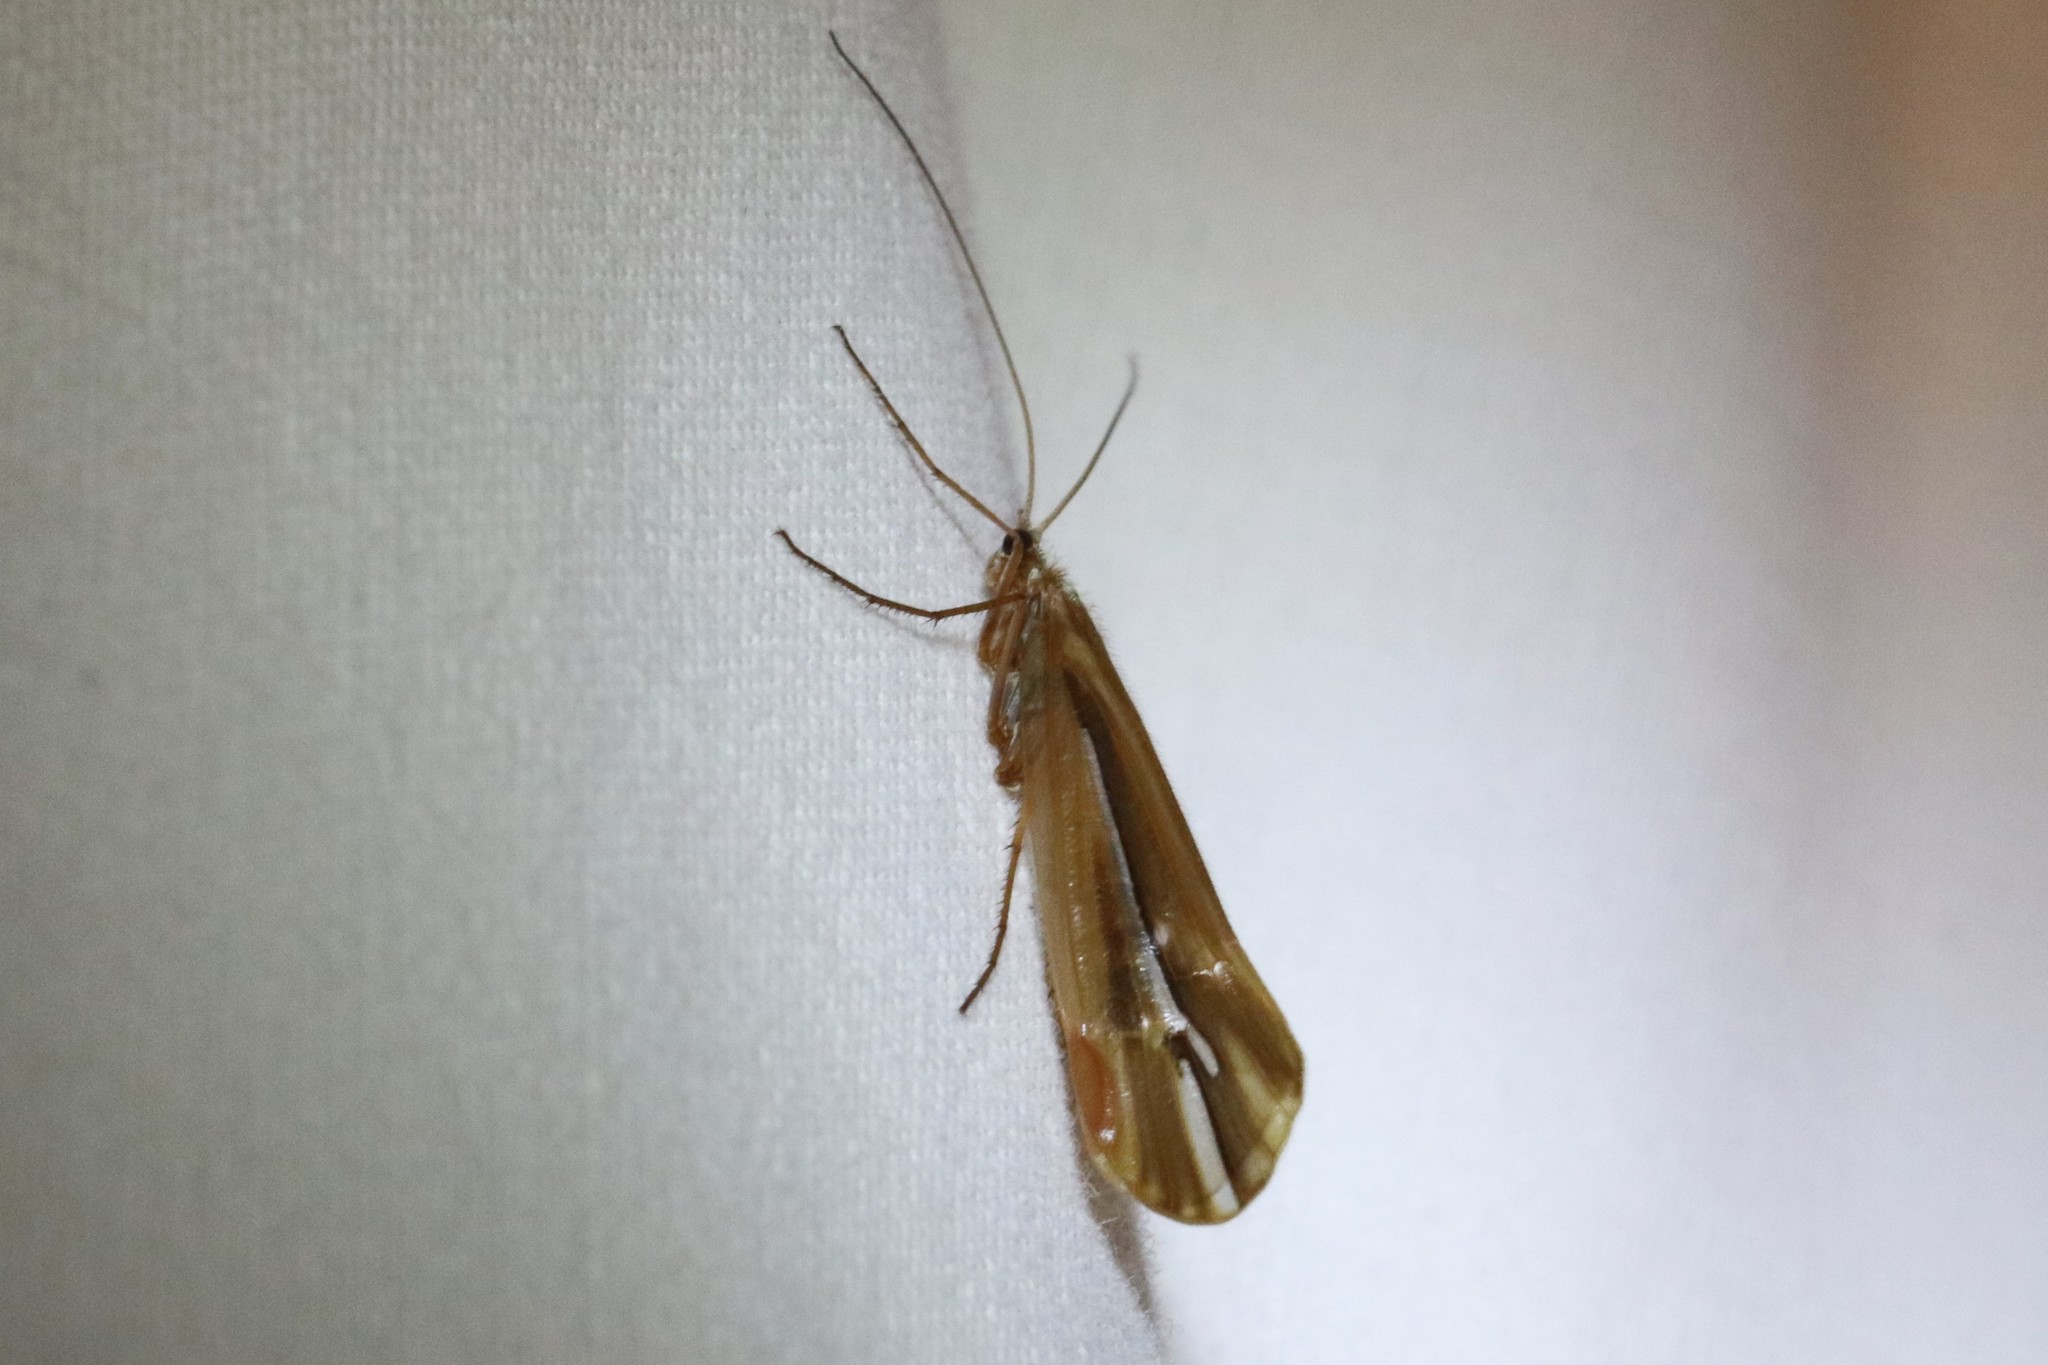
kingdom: Animalia
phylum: Arthropoda
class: Insecta
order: Trichoptera
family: Limnephilidae
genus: Psychoglypha
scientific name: Psychoglypha subborealis
